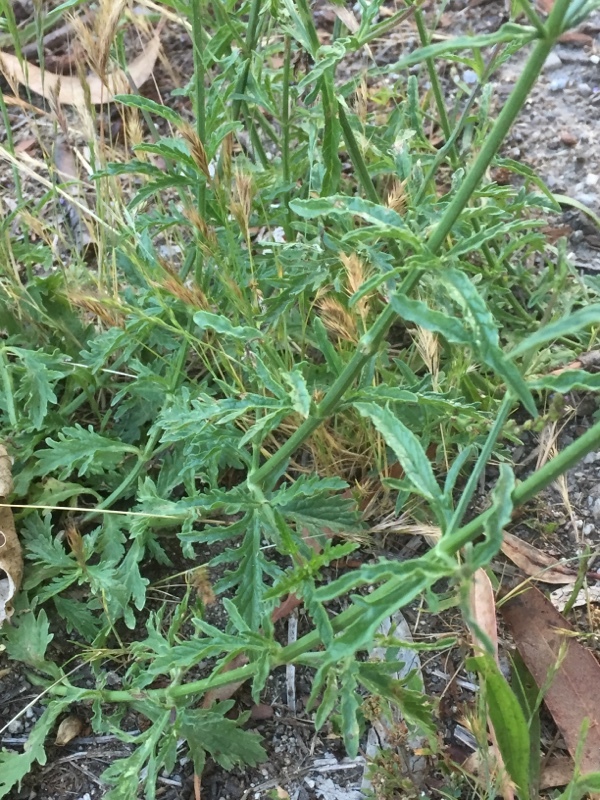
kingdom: Plantae
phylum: Tracheophyta
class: Magnoliopsida
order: Lamiales
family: Verbenaceae
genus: Verbena
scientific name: Verbena officinalis
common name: Vervain
